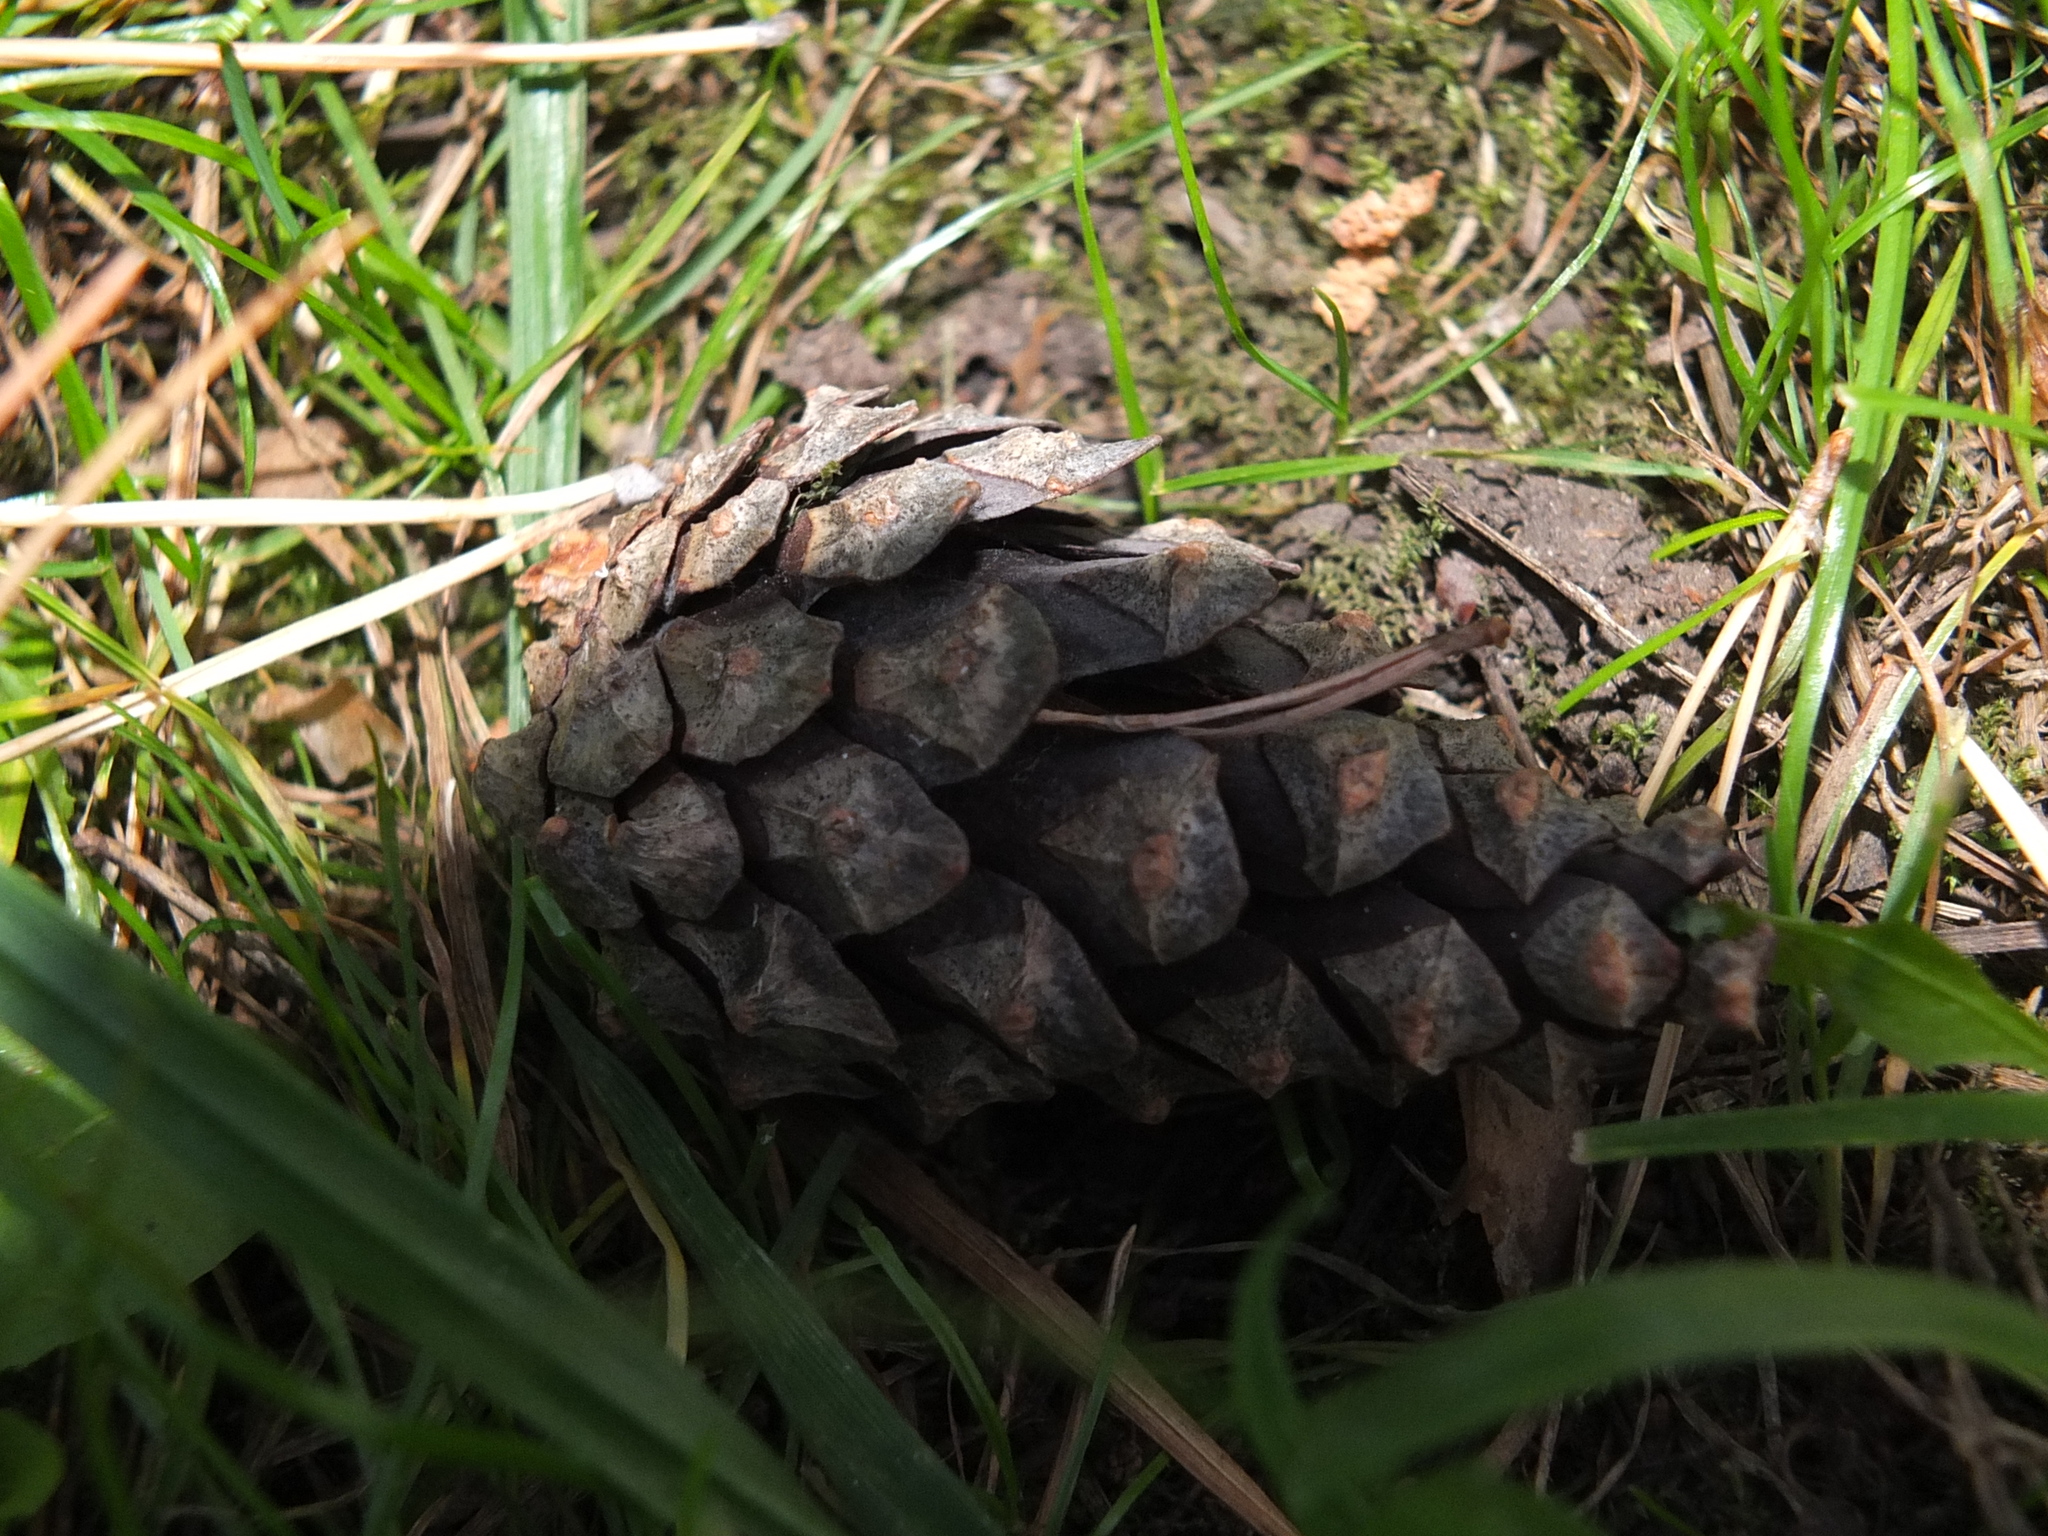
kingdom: Plantae
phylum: Tracheophyta
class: Pinopsida
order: Pinales
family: Pinaceae
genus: Pinus
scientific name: Pinus sylvestris
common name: Scots pine
